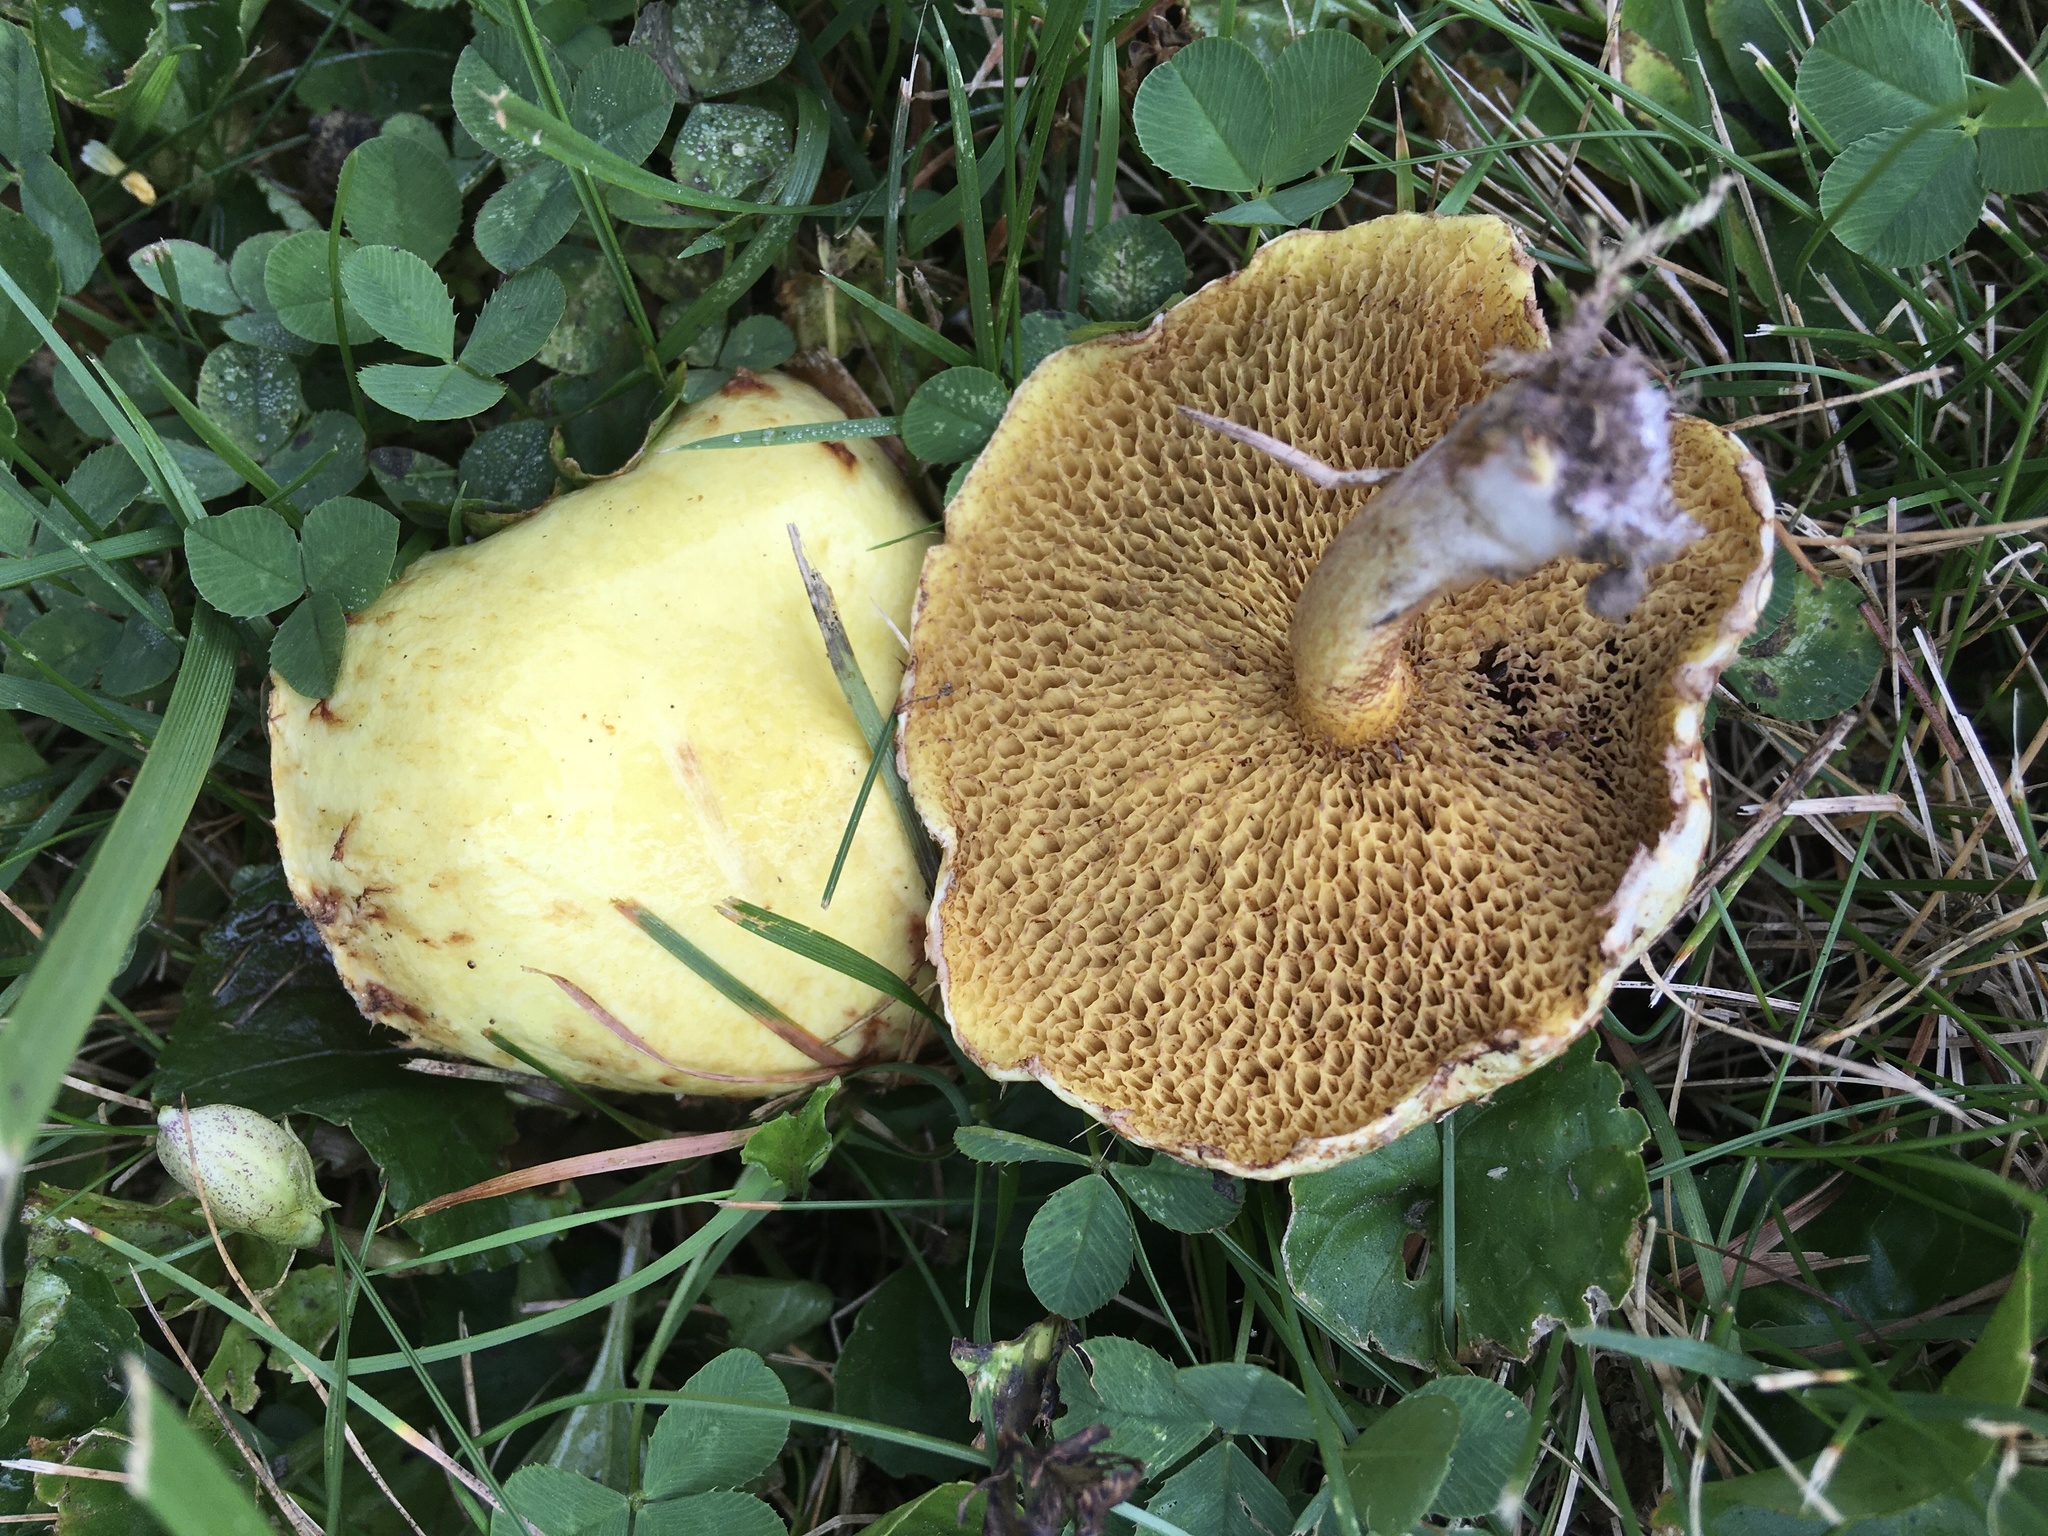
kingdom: Fungi
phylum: Basidiomycota
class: Agaricomycetes
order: Boletales
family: Suillaceae
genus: Suillus
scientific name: Suillus americanus
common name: Chicken fat mushroom
